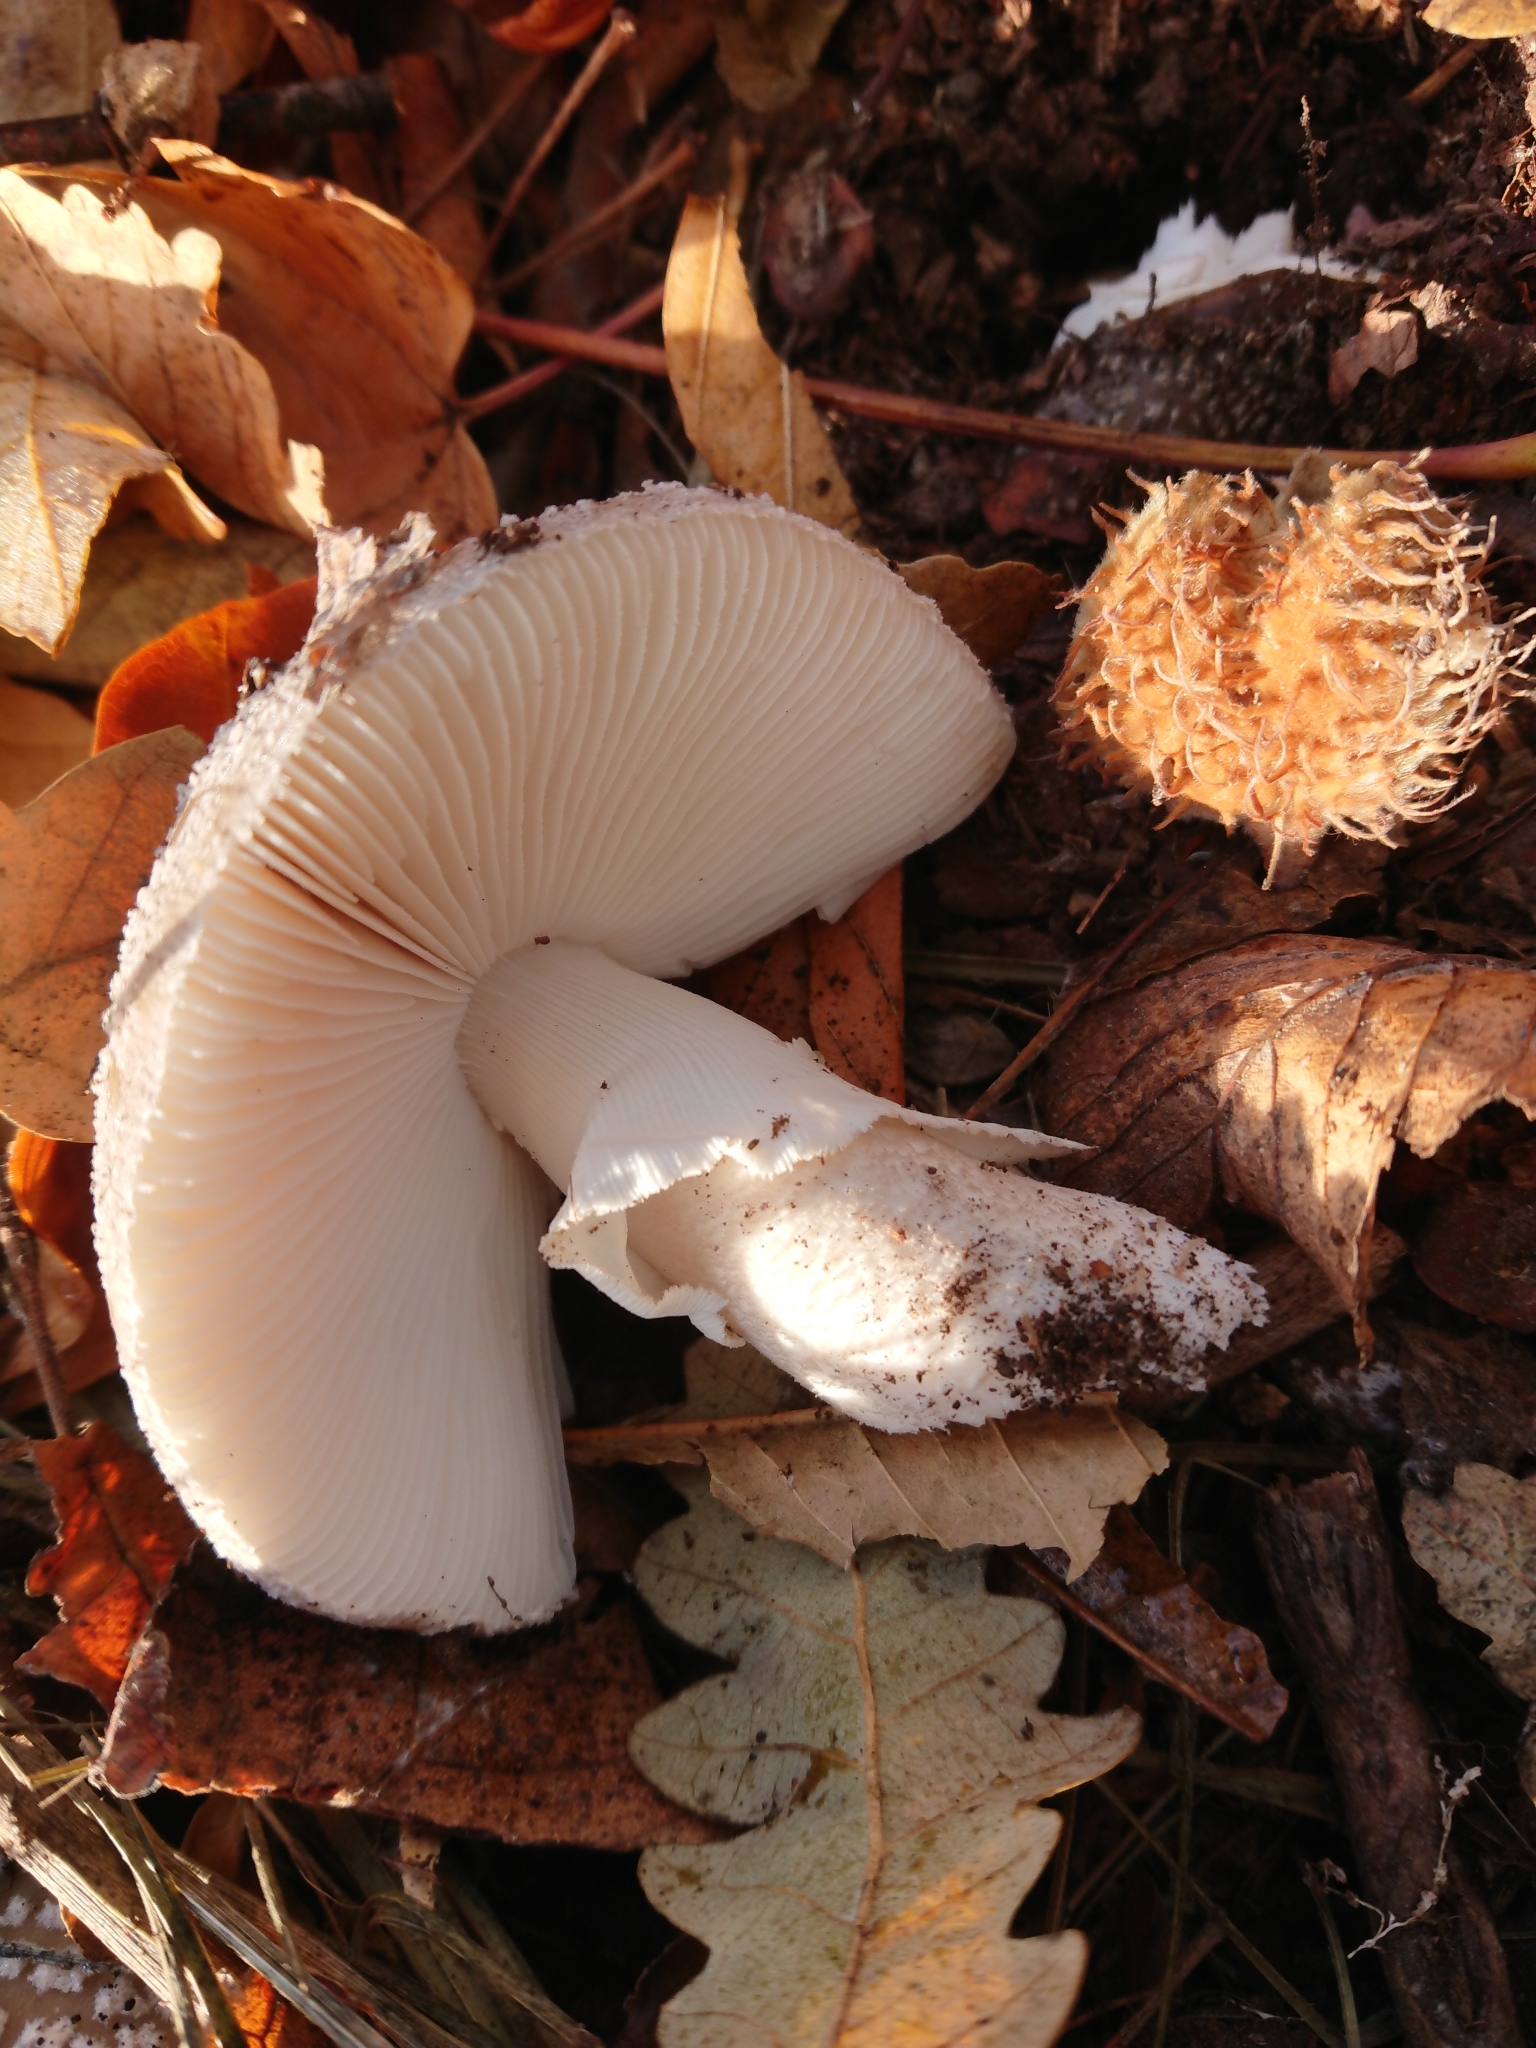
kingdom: Fungi
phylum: Basidiomycota
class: Agaricomycetes
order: Agaricales
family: Amanitaceae
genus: Amanita
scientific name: Amanita excelsa
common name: European false blusher
